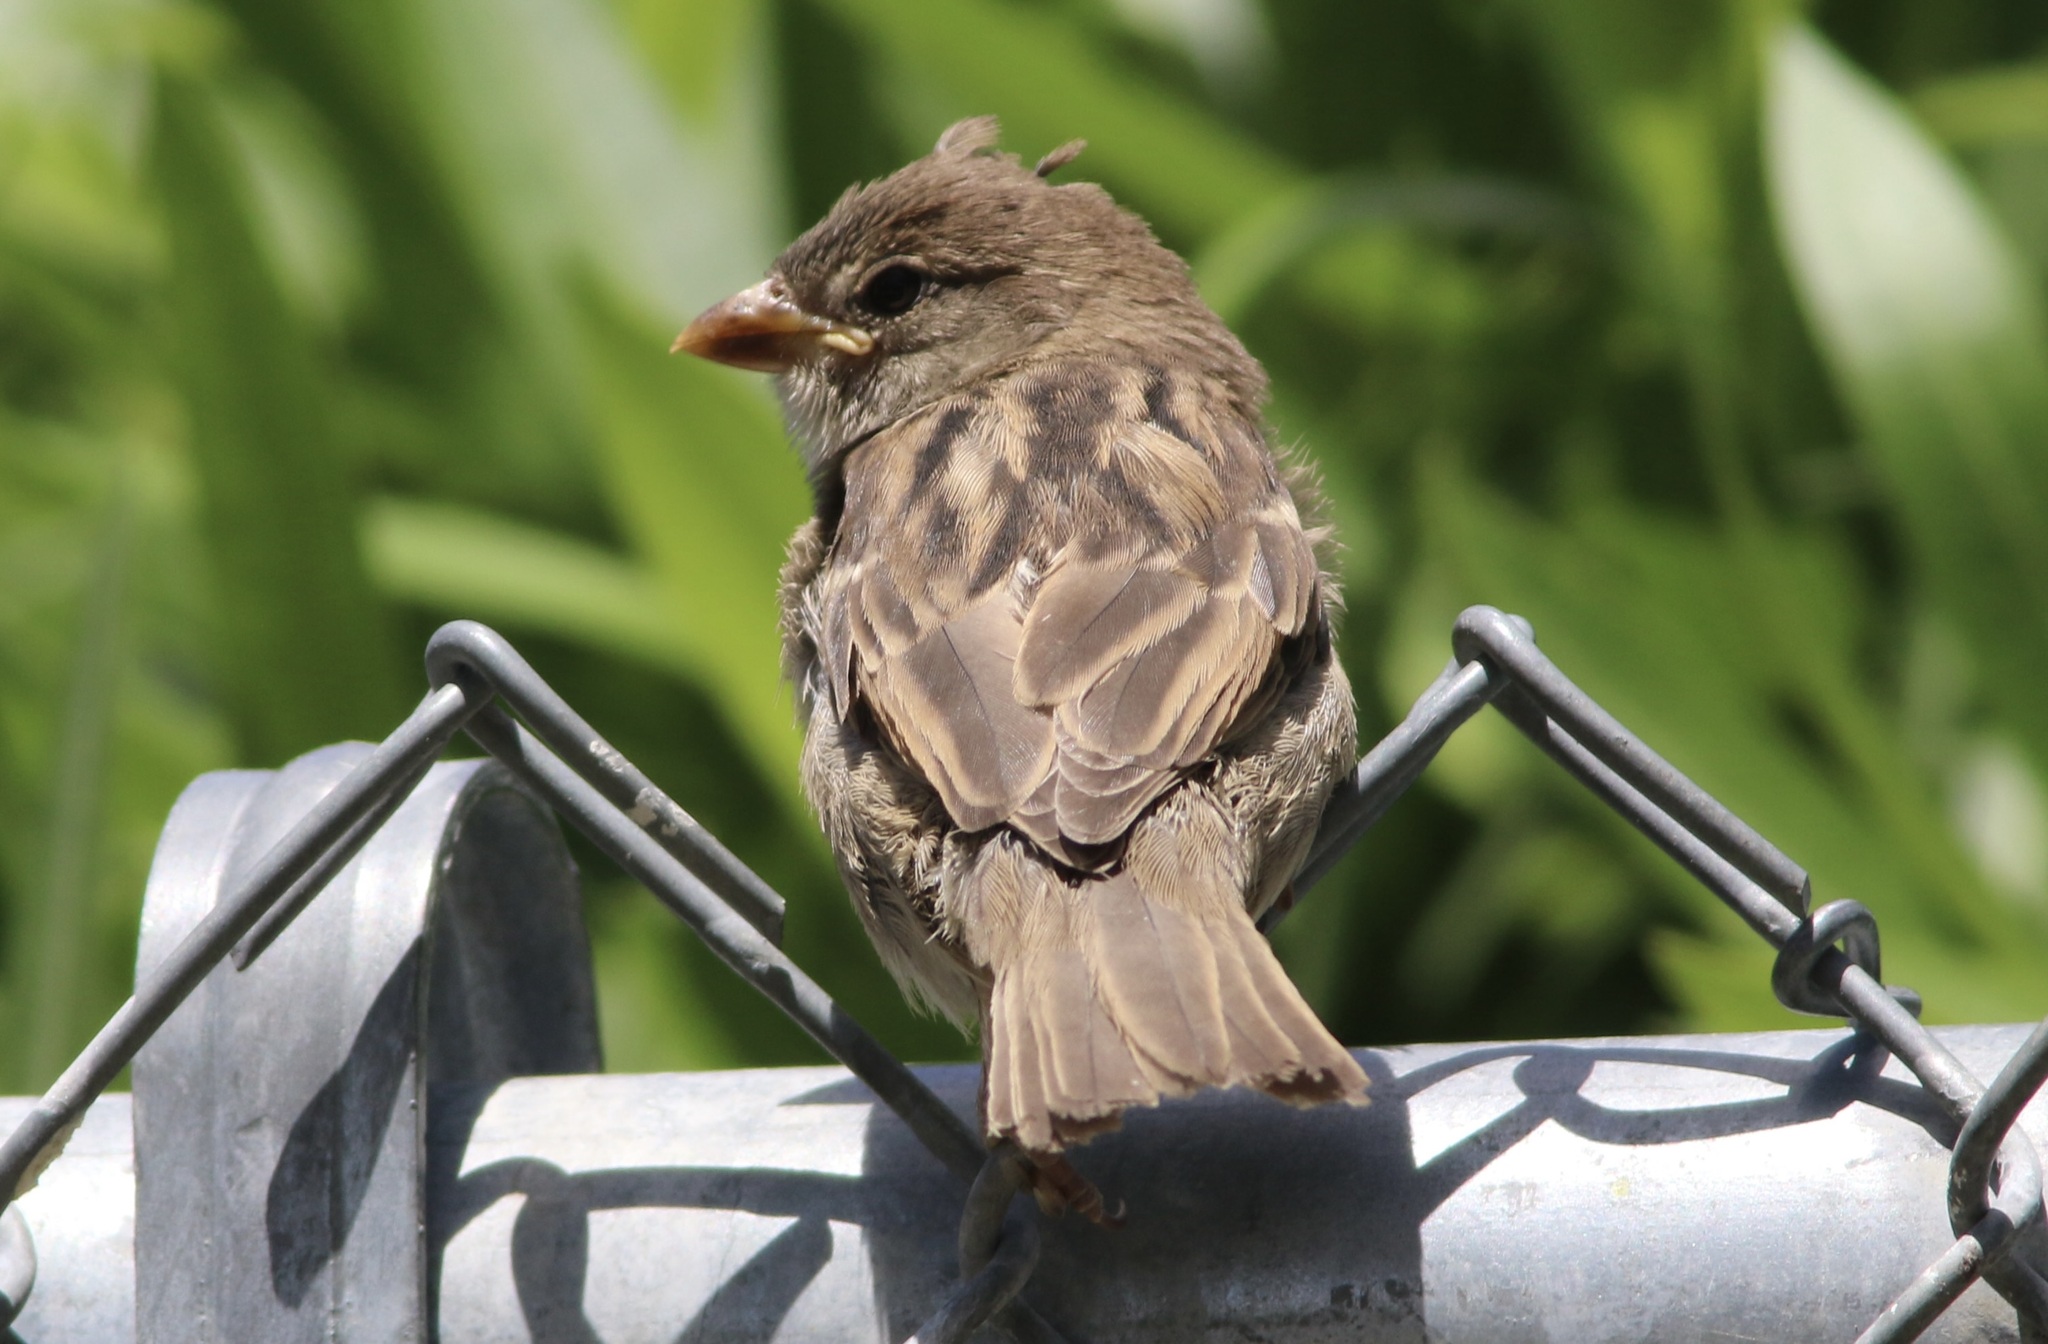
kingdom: Animalia
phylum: Chordata
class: Aves
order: Passeriformes
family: Passeridae
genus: Passer
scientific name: Passer domesticus
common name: House sparrow
